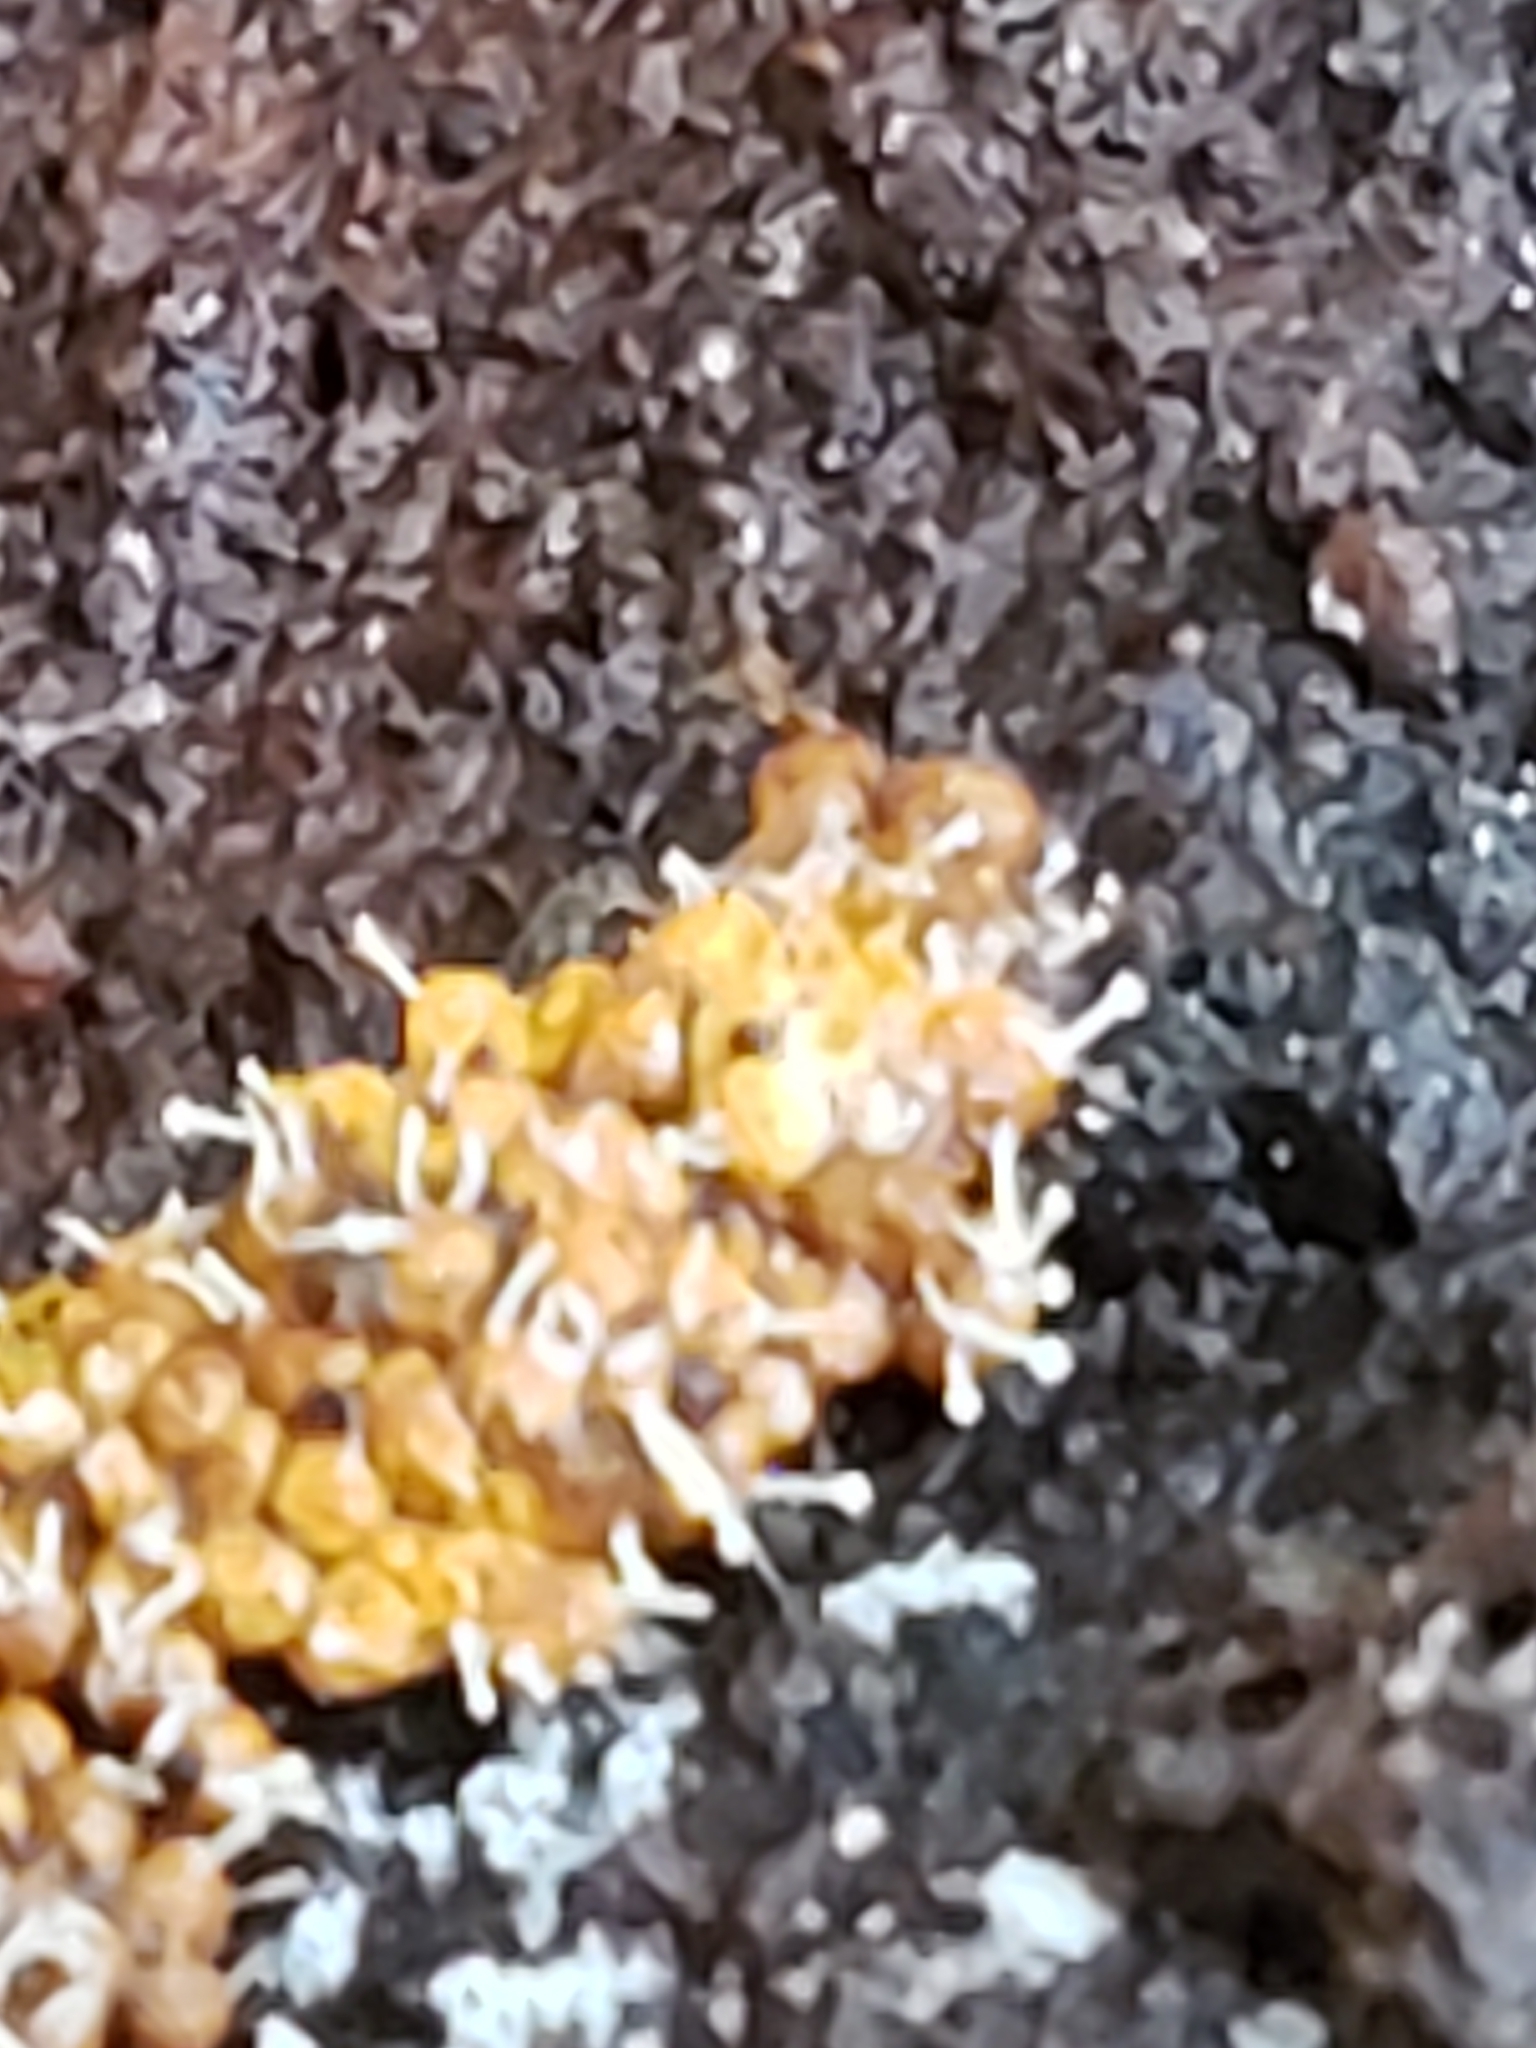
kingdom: Fungi
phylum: Ascomycota
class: Sordariomycetes
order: Hypocreales
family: Ophiocordycipitaceae
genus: Polycephalomyces
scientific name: Polycephalomyces tomentosus
